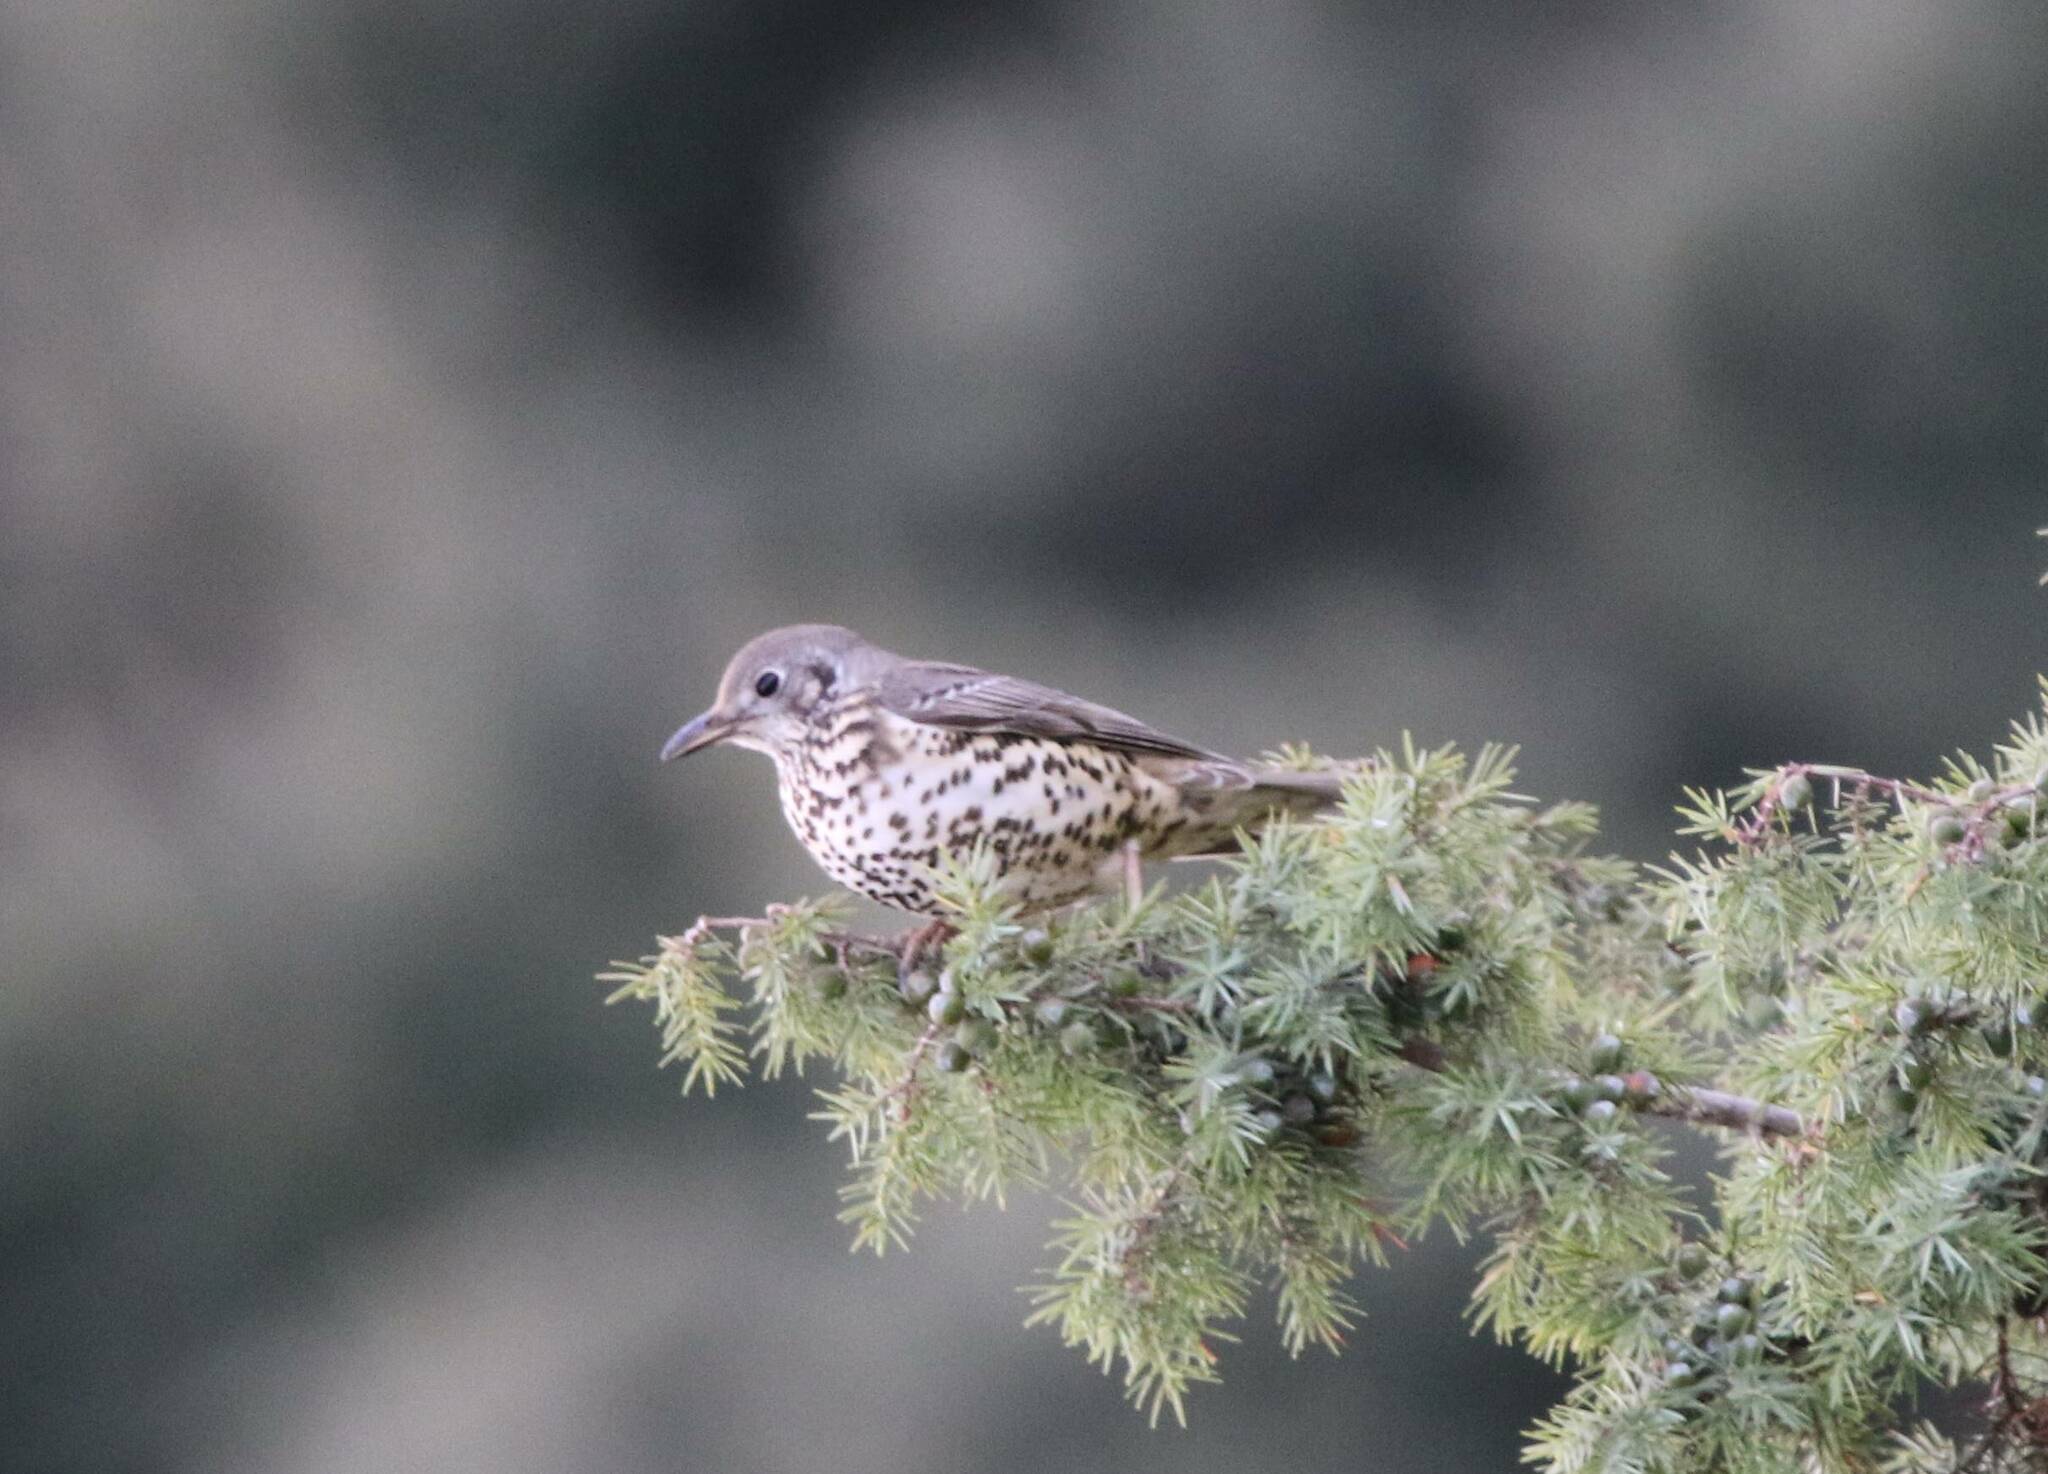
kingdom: Animalia
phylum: Chordata
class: Aves
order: Passeriformes
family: Turdidae
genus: Turdus
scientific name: Turdus viscivorus
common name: Mistle thrush
